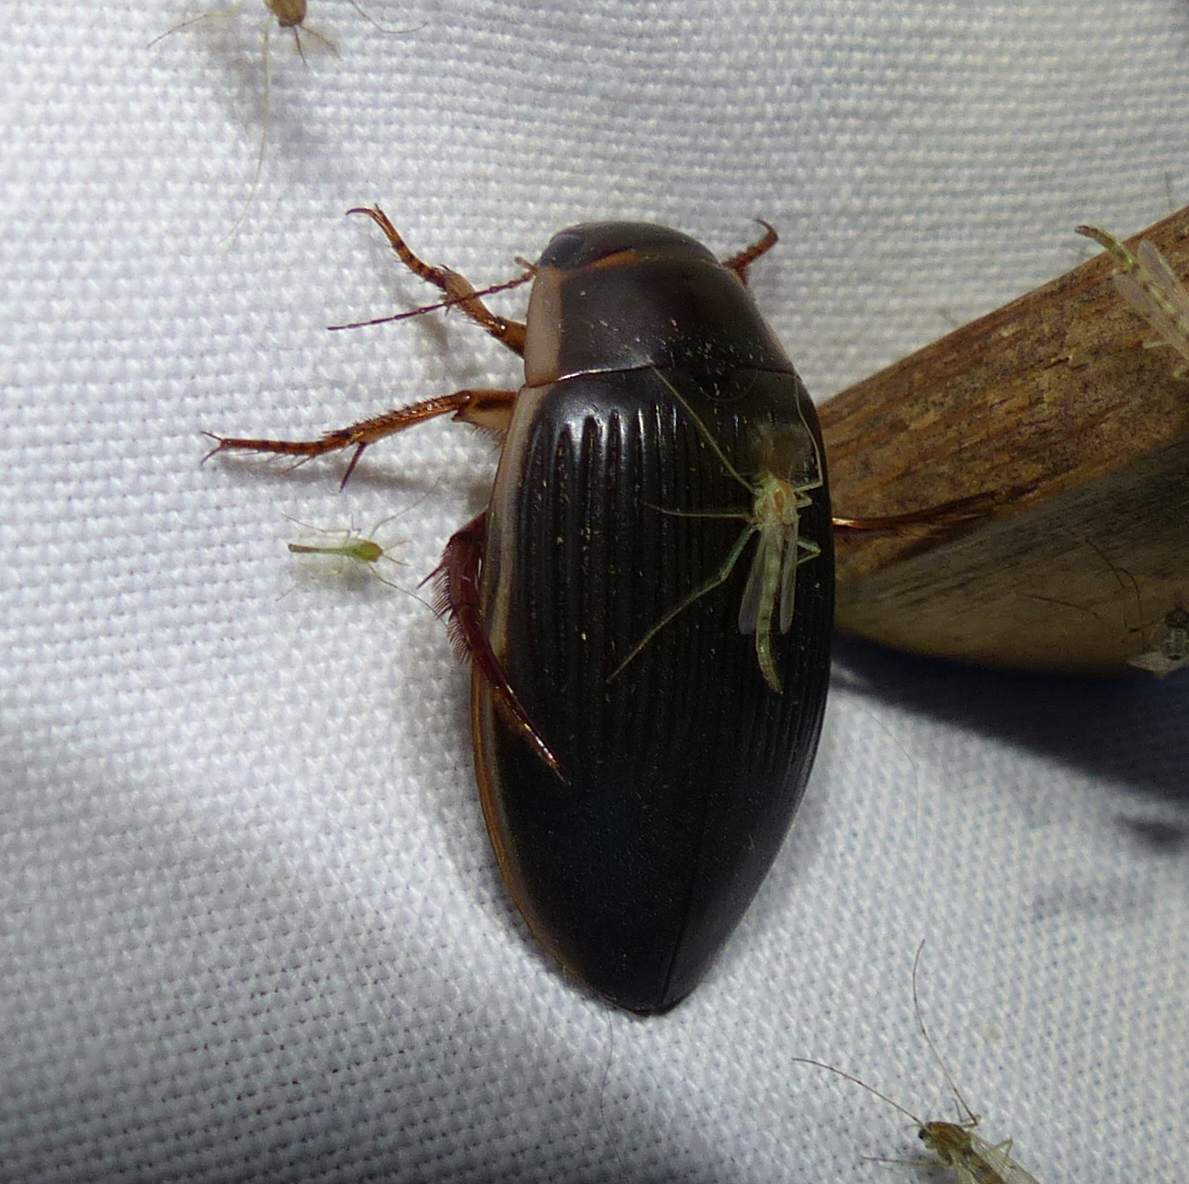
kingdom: Animalia
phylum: Arthropoda
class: Insecta
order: Coleoptera
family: Dytiscidae
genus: Dytiscus
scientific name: Dytiscus
